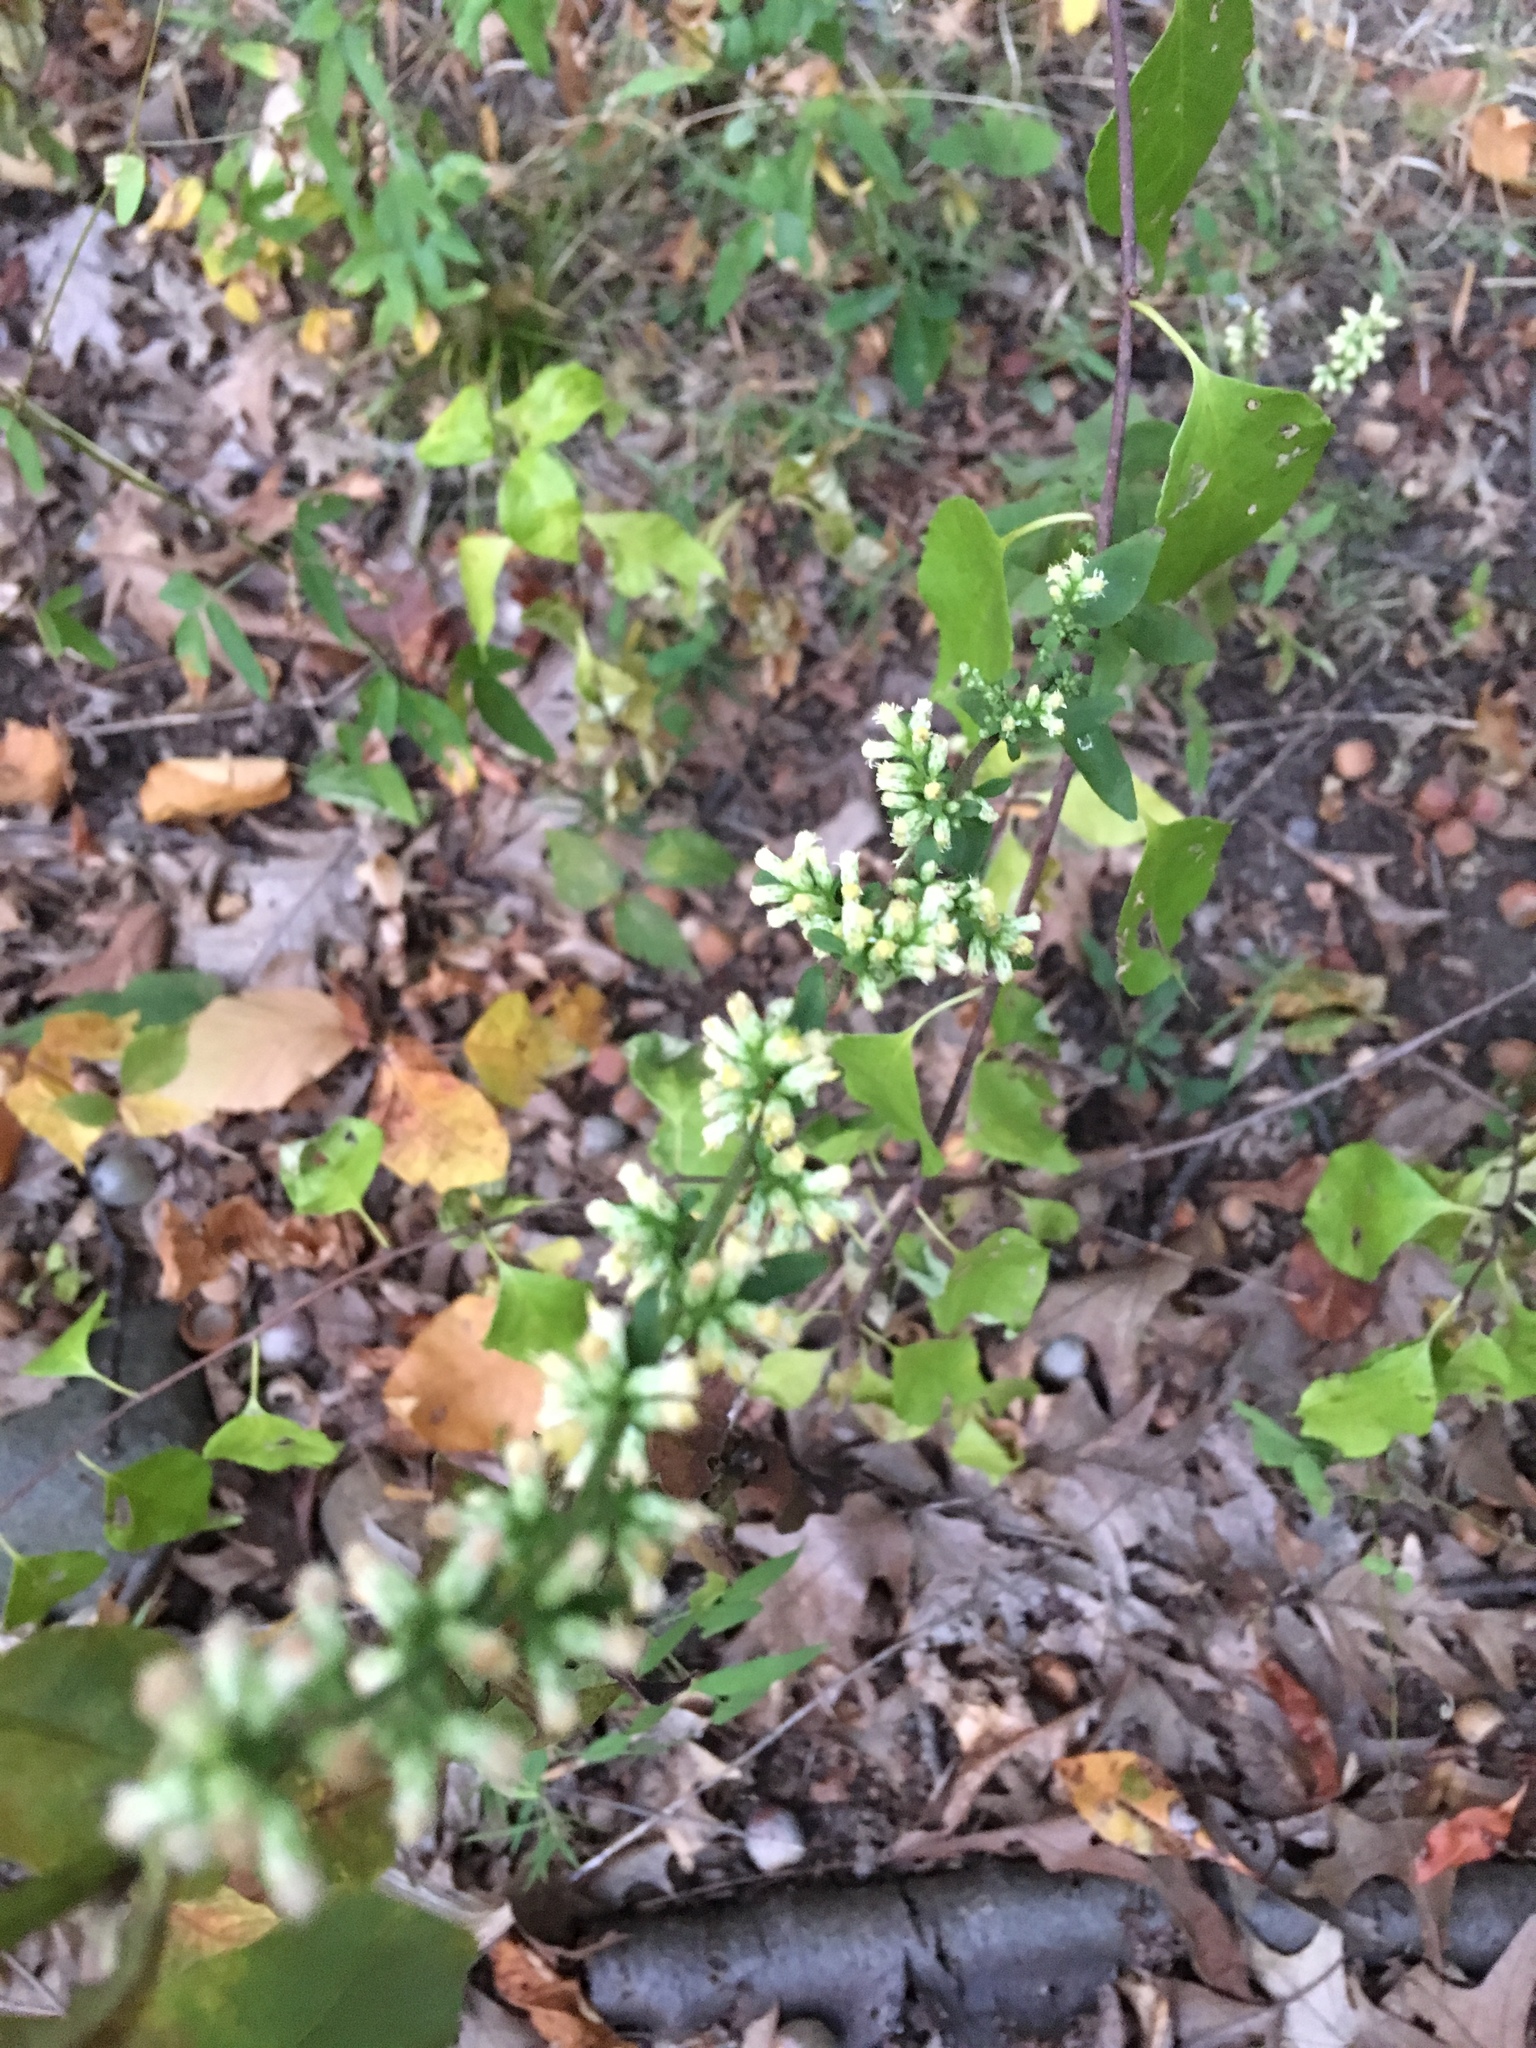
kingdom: Plantae
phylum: Tracheophyta
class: Magnoliopsida
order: Asterales
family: Asteraceae
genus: Solidago
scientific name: Solidago bicolor
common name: Silverrod
